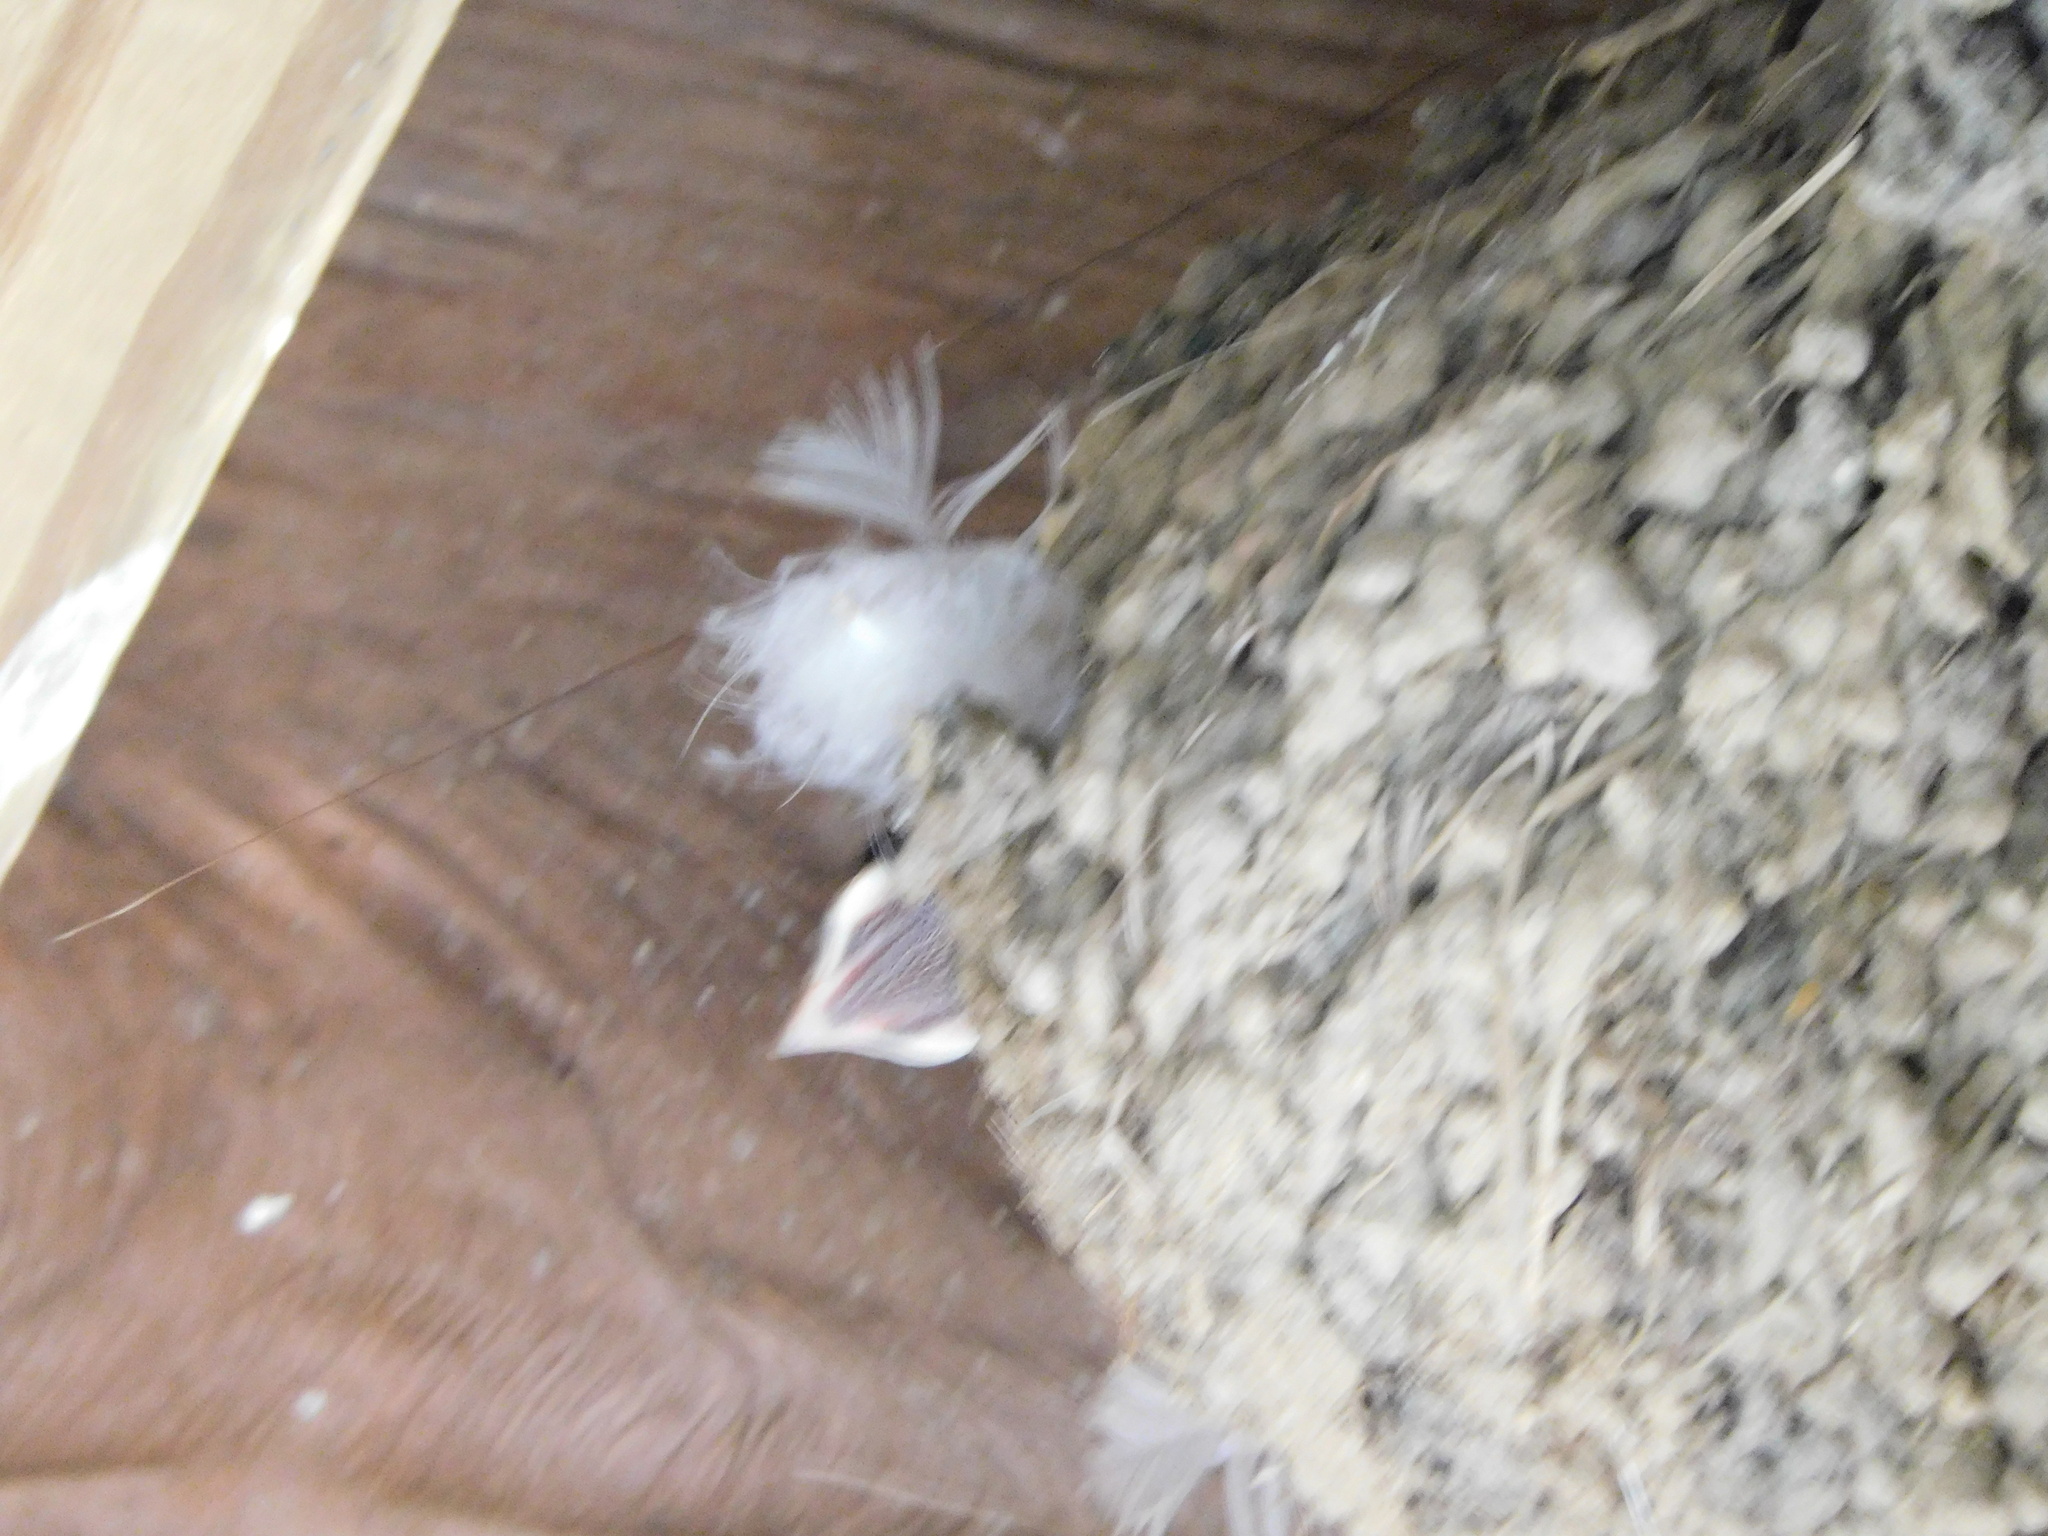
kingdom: Animalia
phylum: Chordata
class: Aves
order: Passeriformes
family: Hirundinidae
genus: Hirundo
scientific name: Hirundo rustica
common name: Barn swallow
